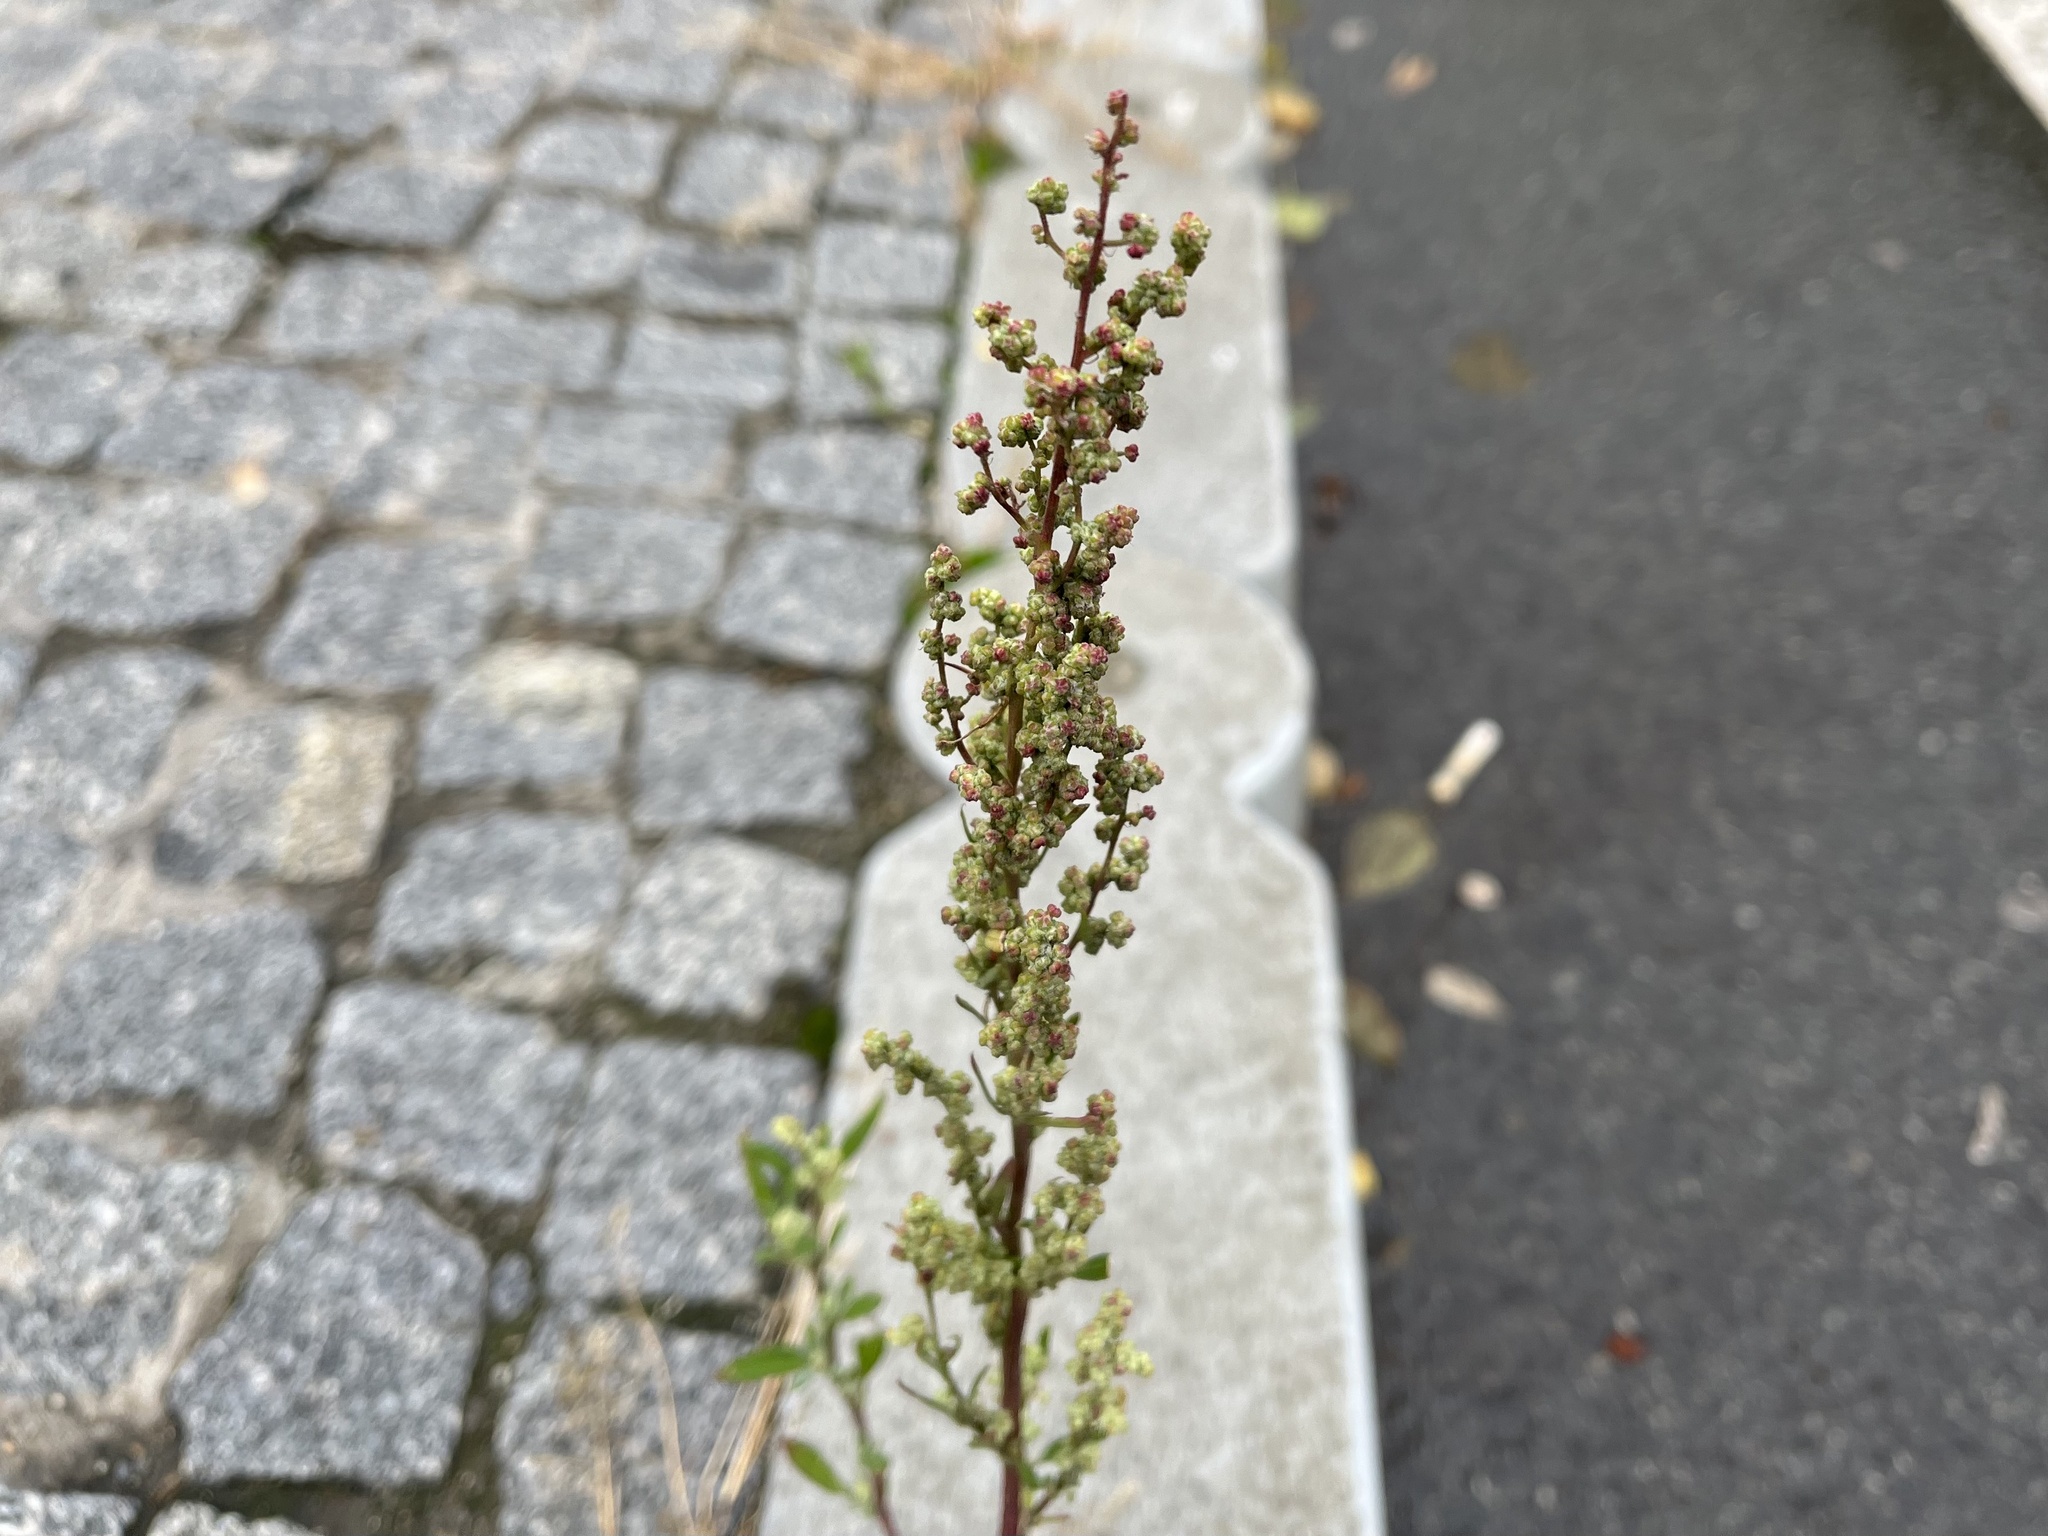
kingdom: Plantae
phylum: Tracheophyta
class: Magnoliopsida
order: Caryophyllales
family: Amaranthaceae
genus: Chenopodium
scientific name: Chenopodium betaceum
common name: Striped goosefoot
